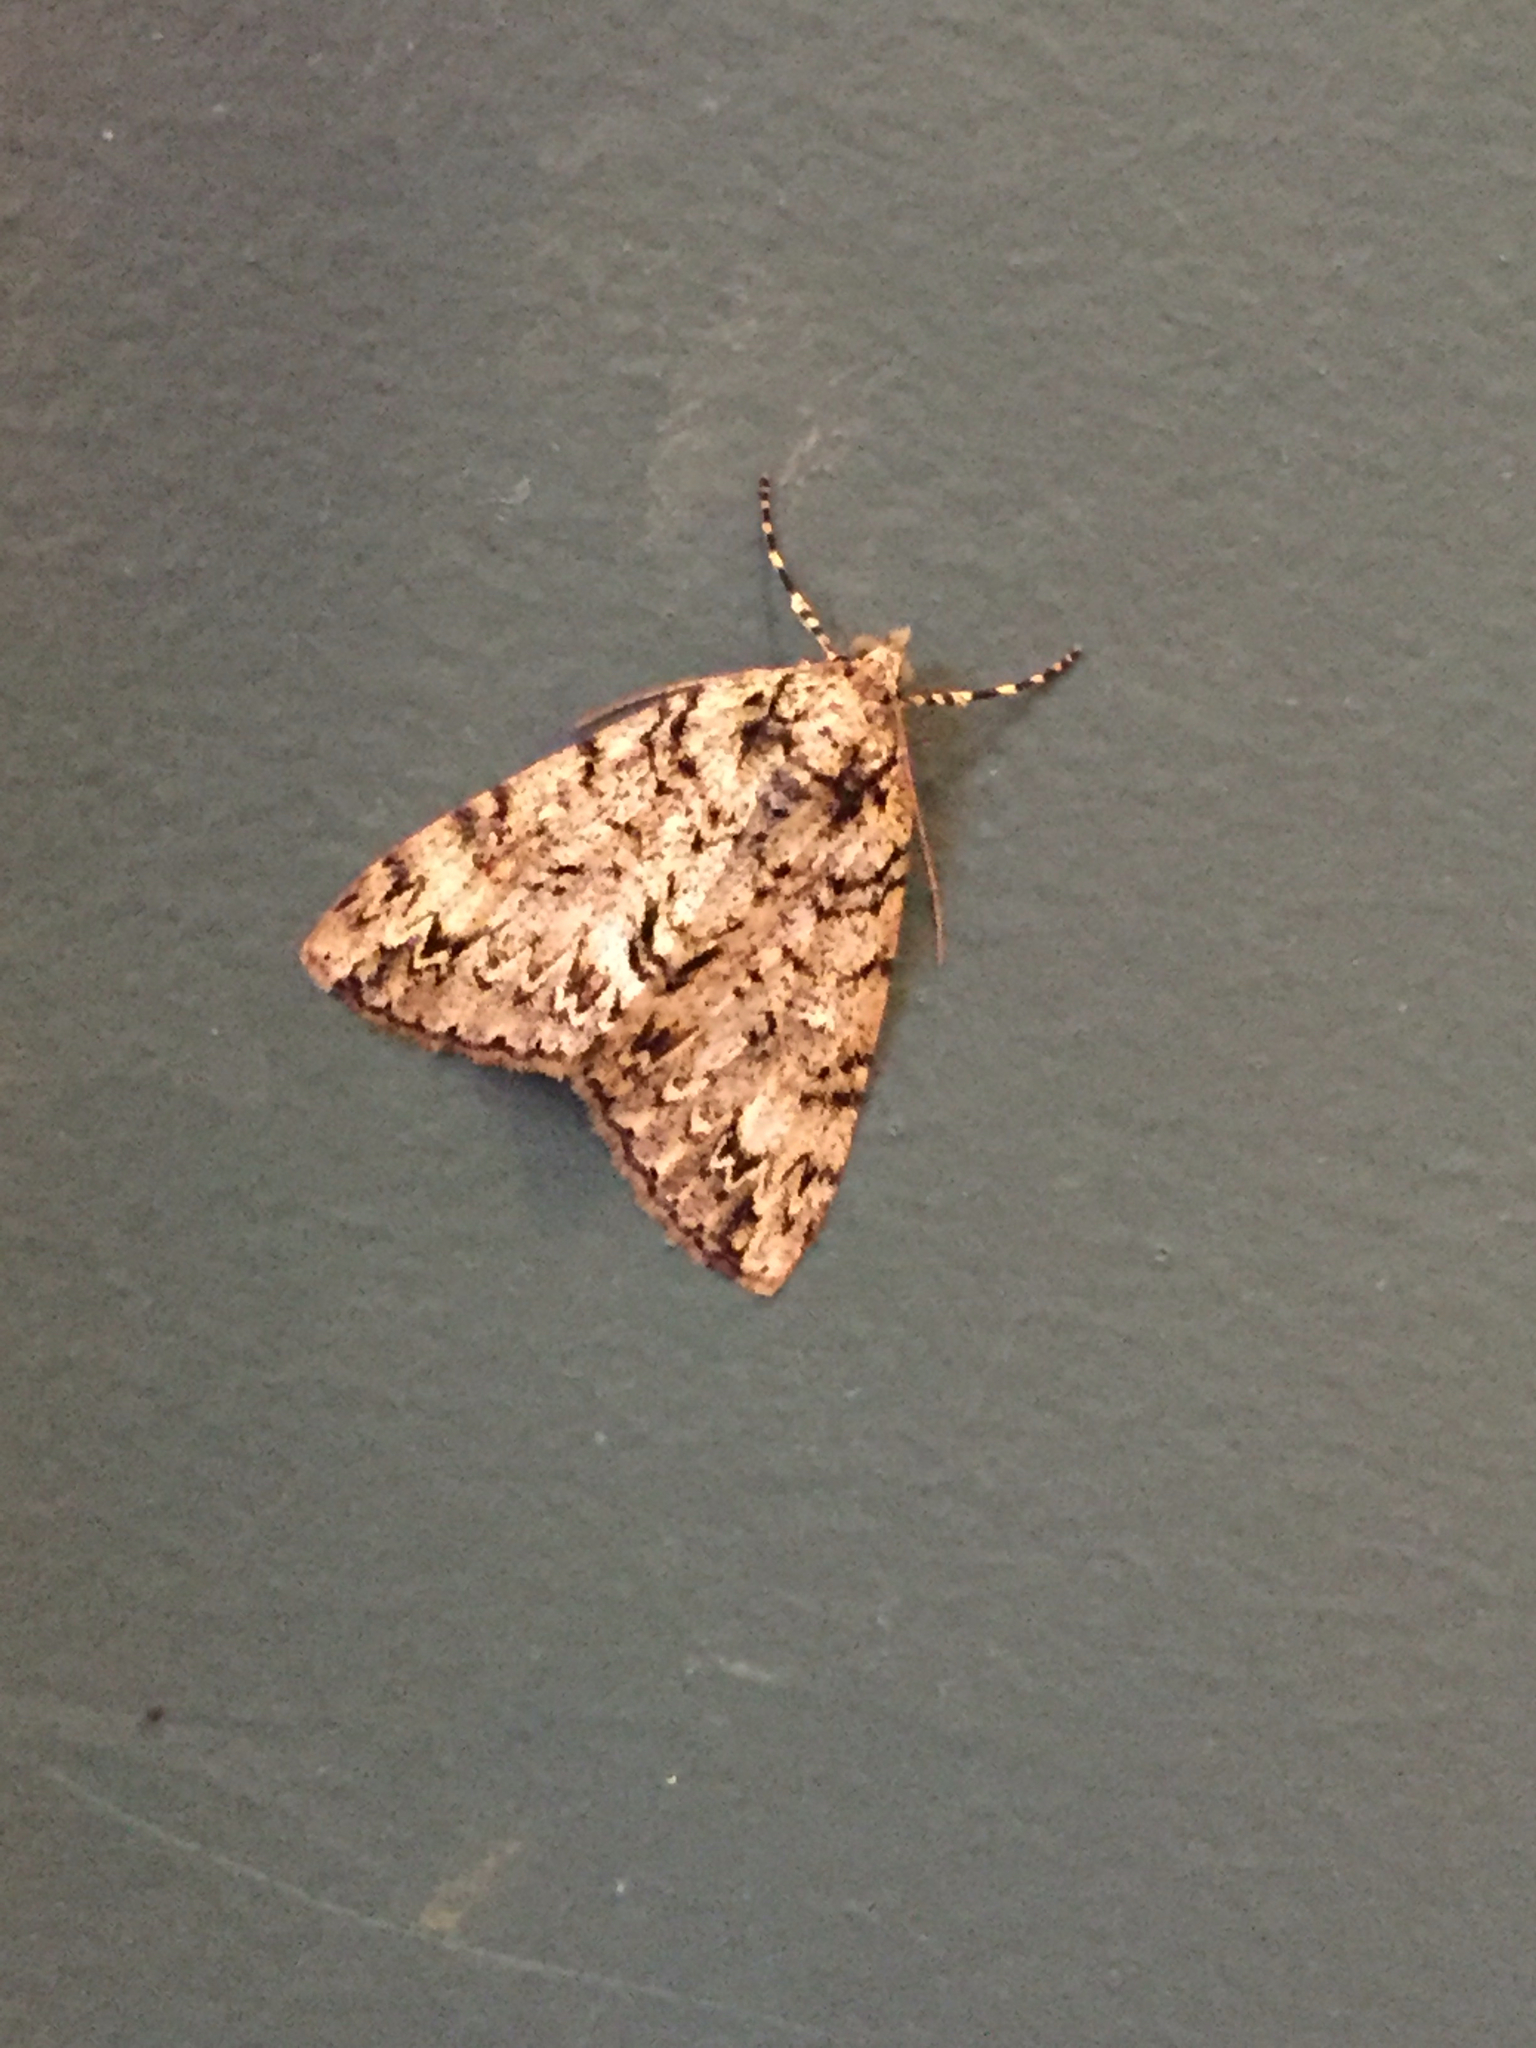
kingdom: Animalia
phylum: Arthropoda
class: Insecta
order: Lepidoptera
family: Geometridae
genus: Pseudocoremia
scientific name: Pseudocoremia suavis
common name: Common forest looper
